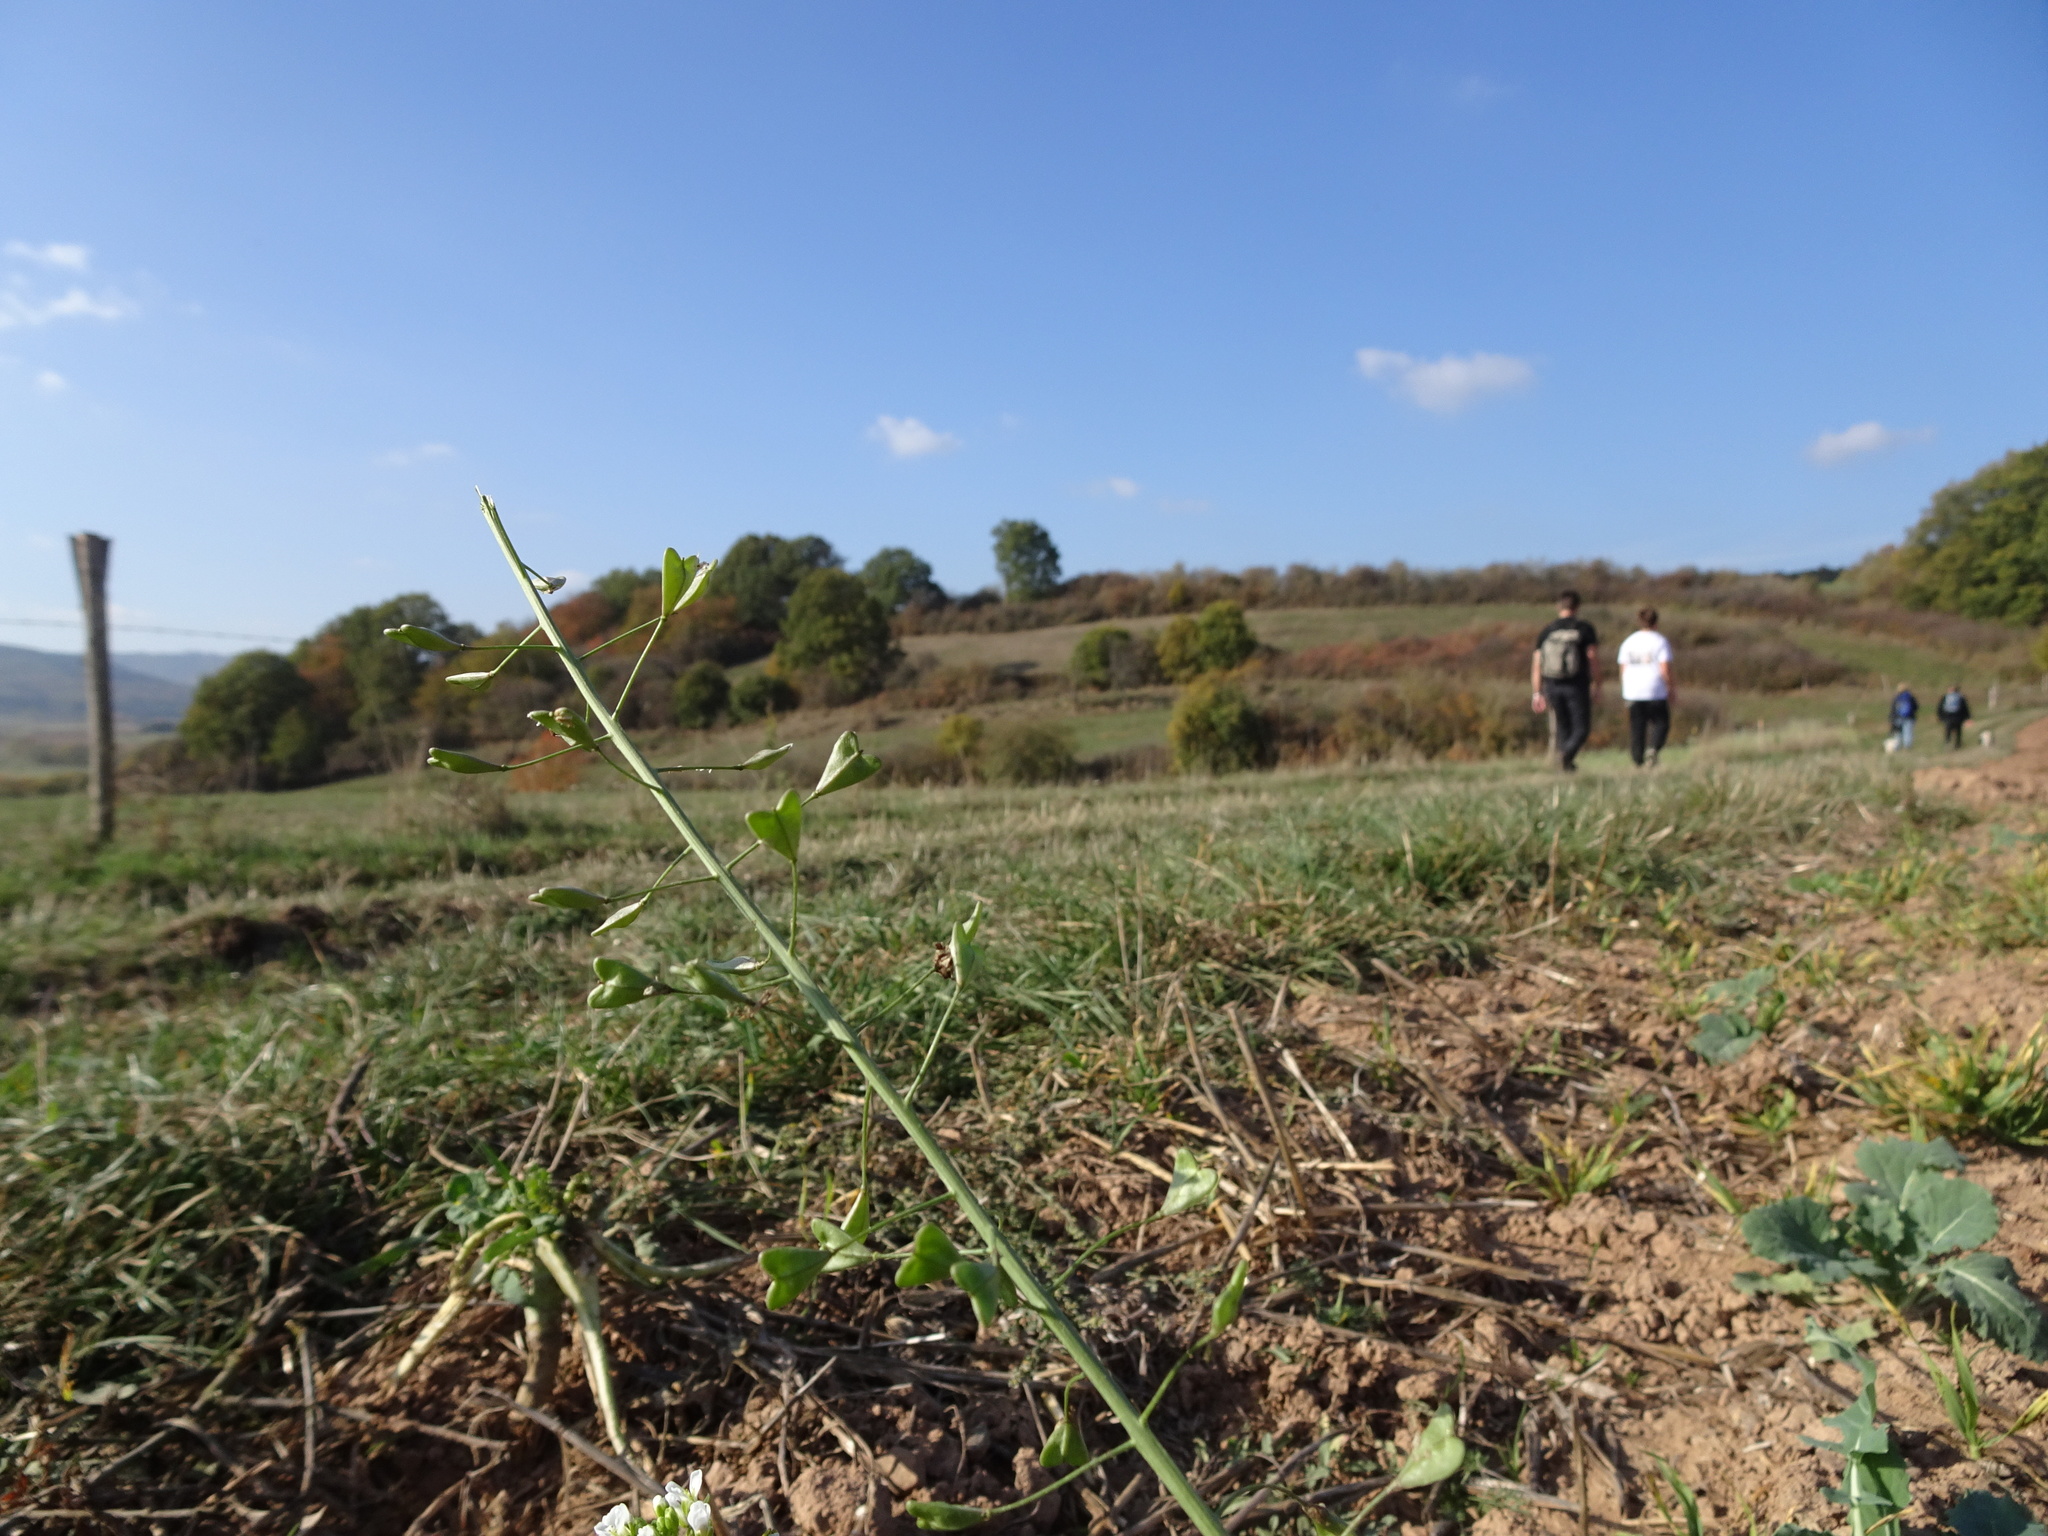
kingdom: Plantae
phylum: Tracheophyta
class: Magnoliopsida
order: Brassicales
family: Brassicaceae
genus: Capsella
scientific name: Capsella bursa-pastoris
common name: Shepherd's purse
